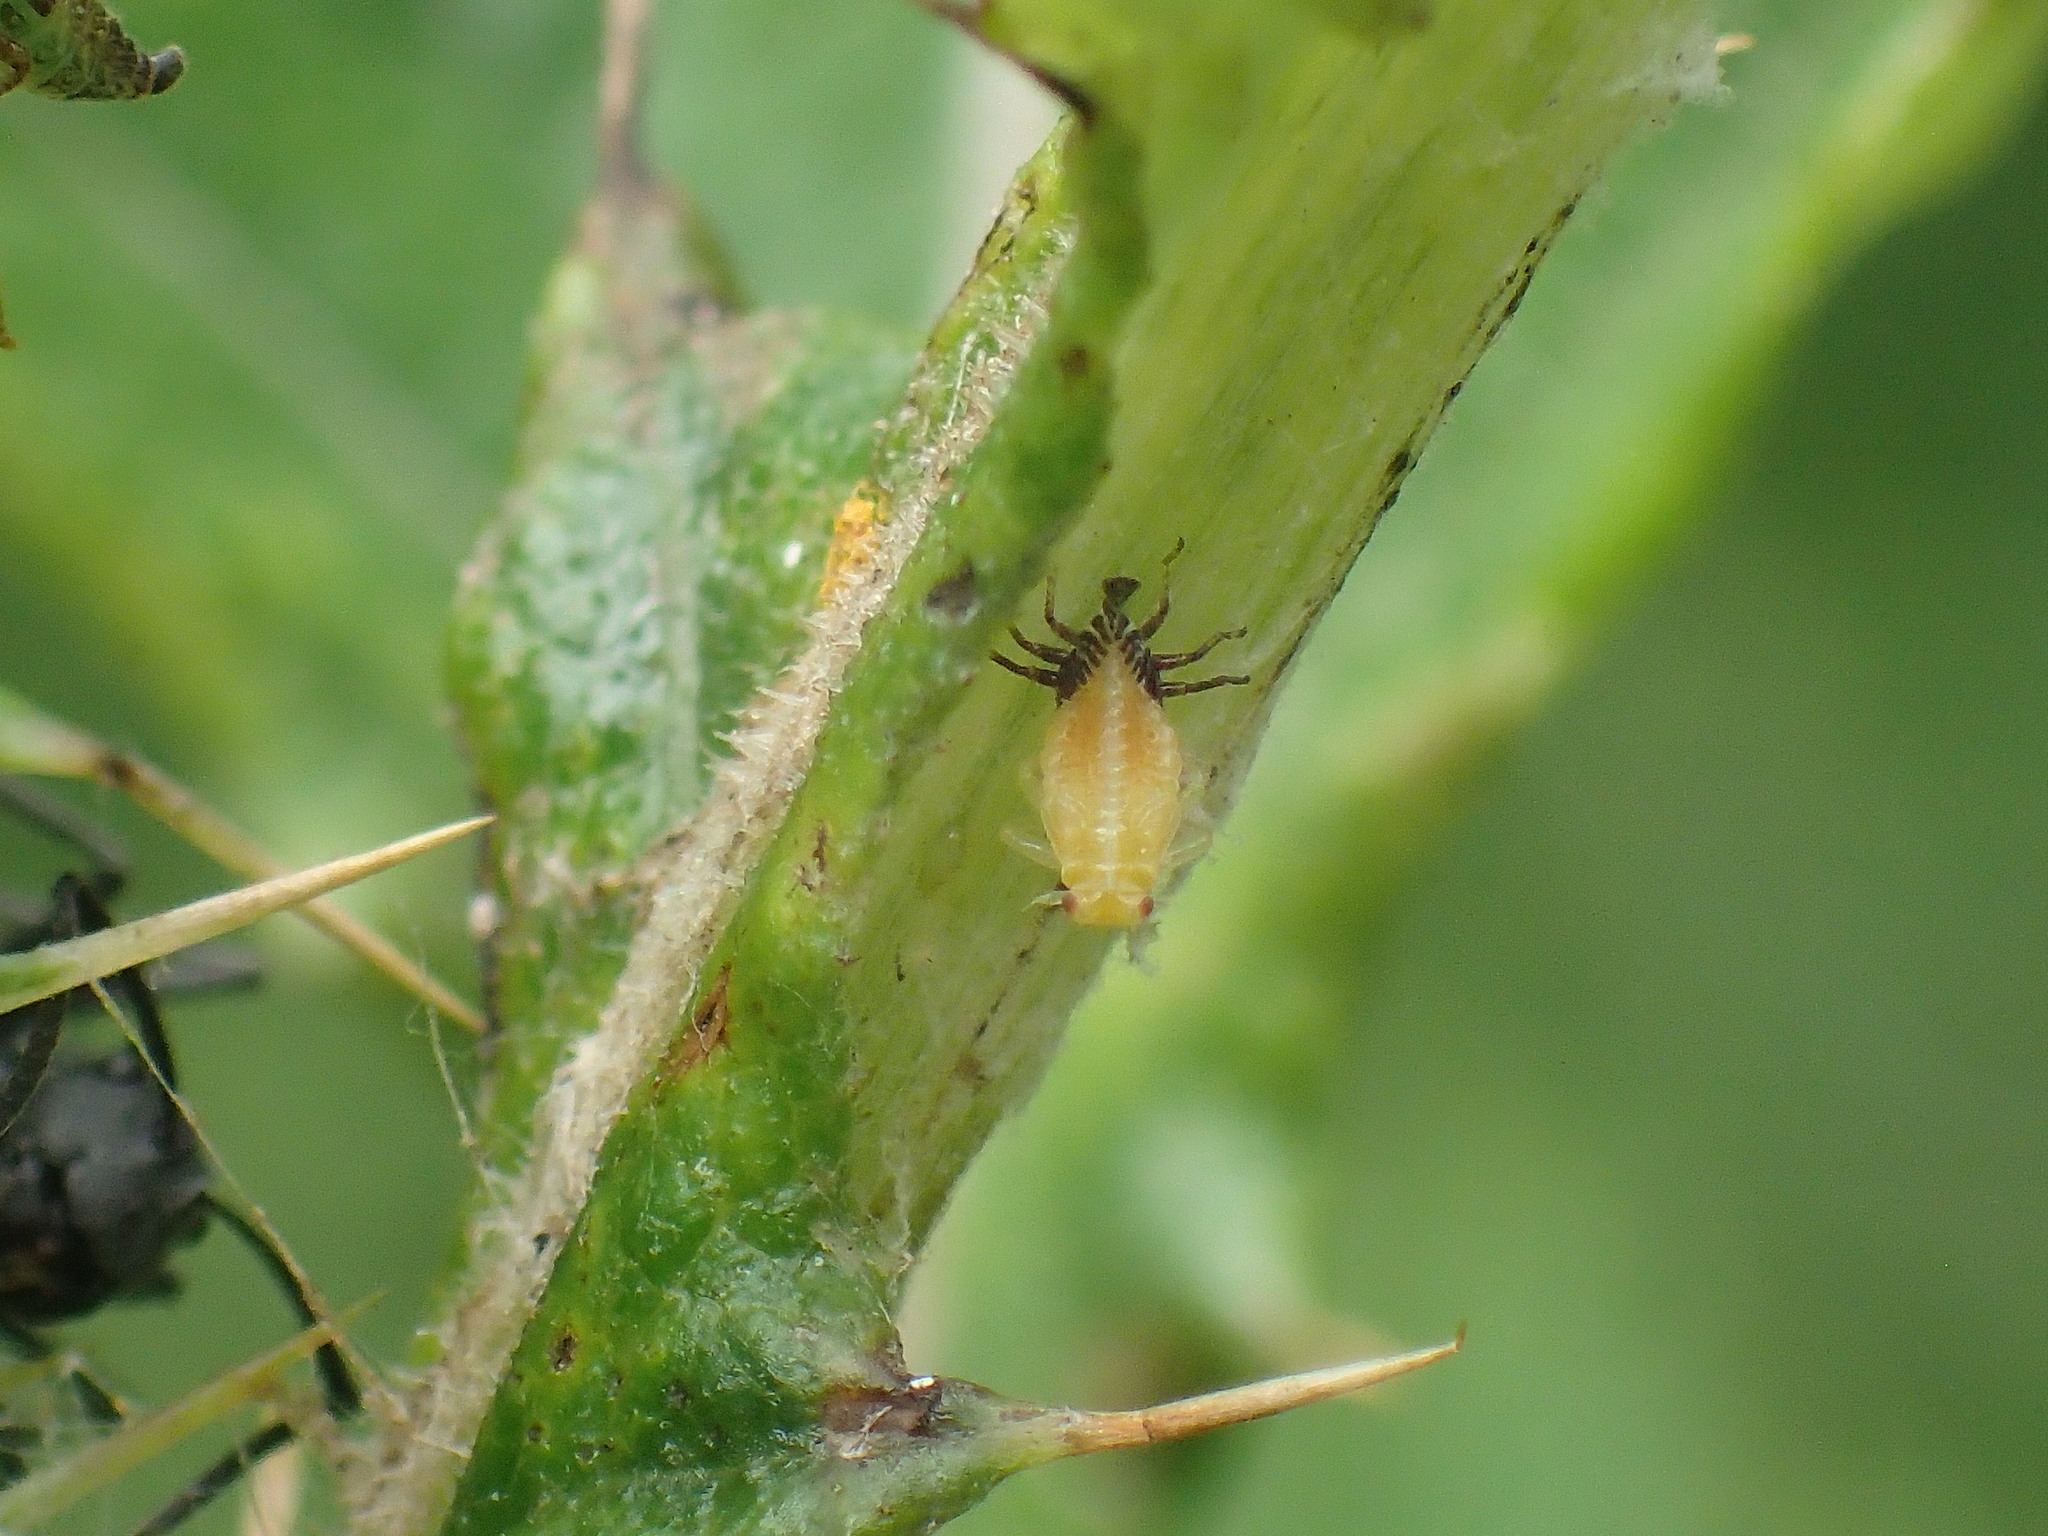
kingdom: Animalia
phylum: Arthropoda
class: Insecta
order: Hemiptera
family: Tettigometridae
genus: Nototettigometra
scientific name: Nototettigometra patruelis
